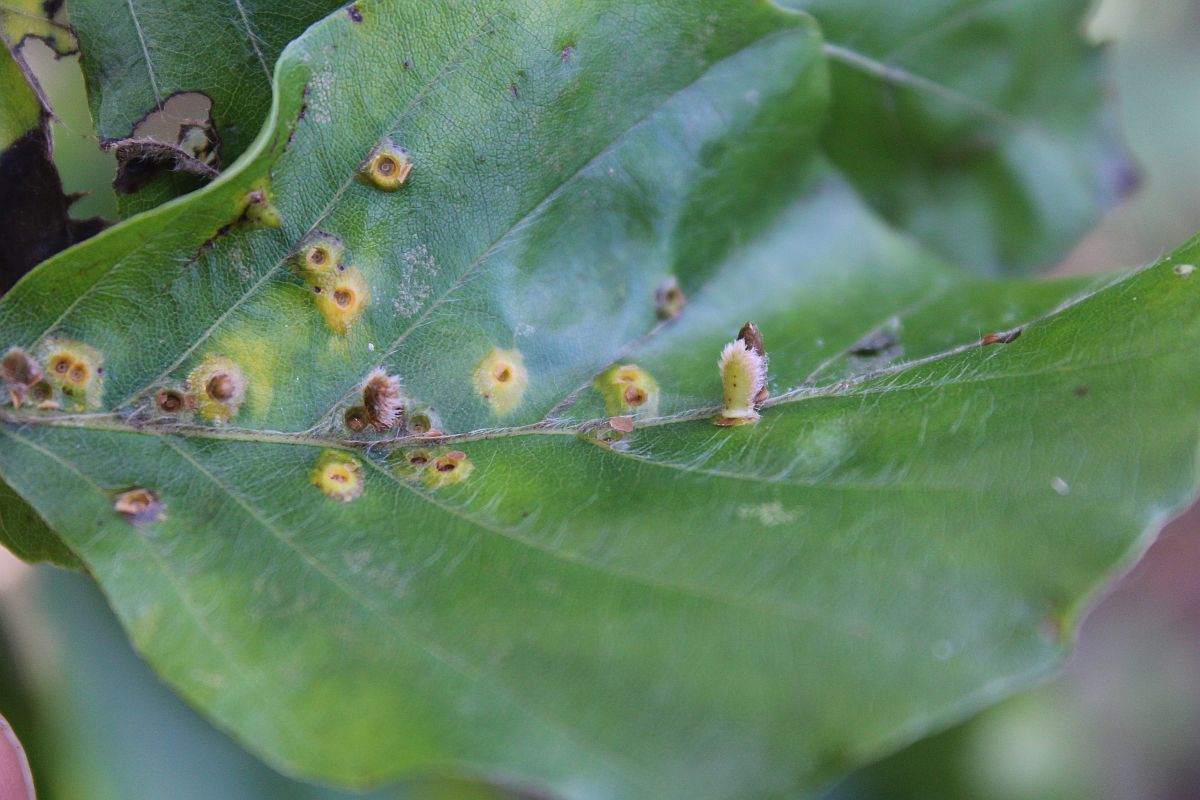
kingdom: Animalia
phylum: Arthropoda
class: Insecta
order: Diptera
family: Cecidomyiidae
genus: Hartigiola
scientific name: Hartigiola annulipes
